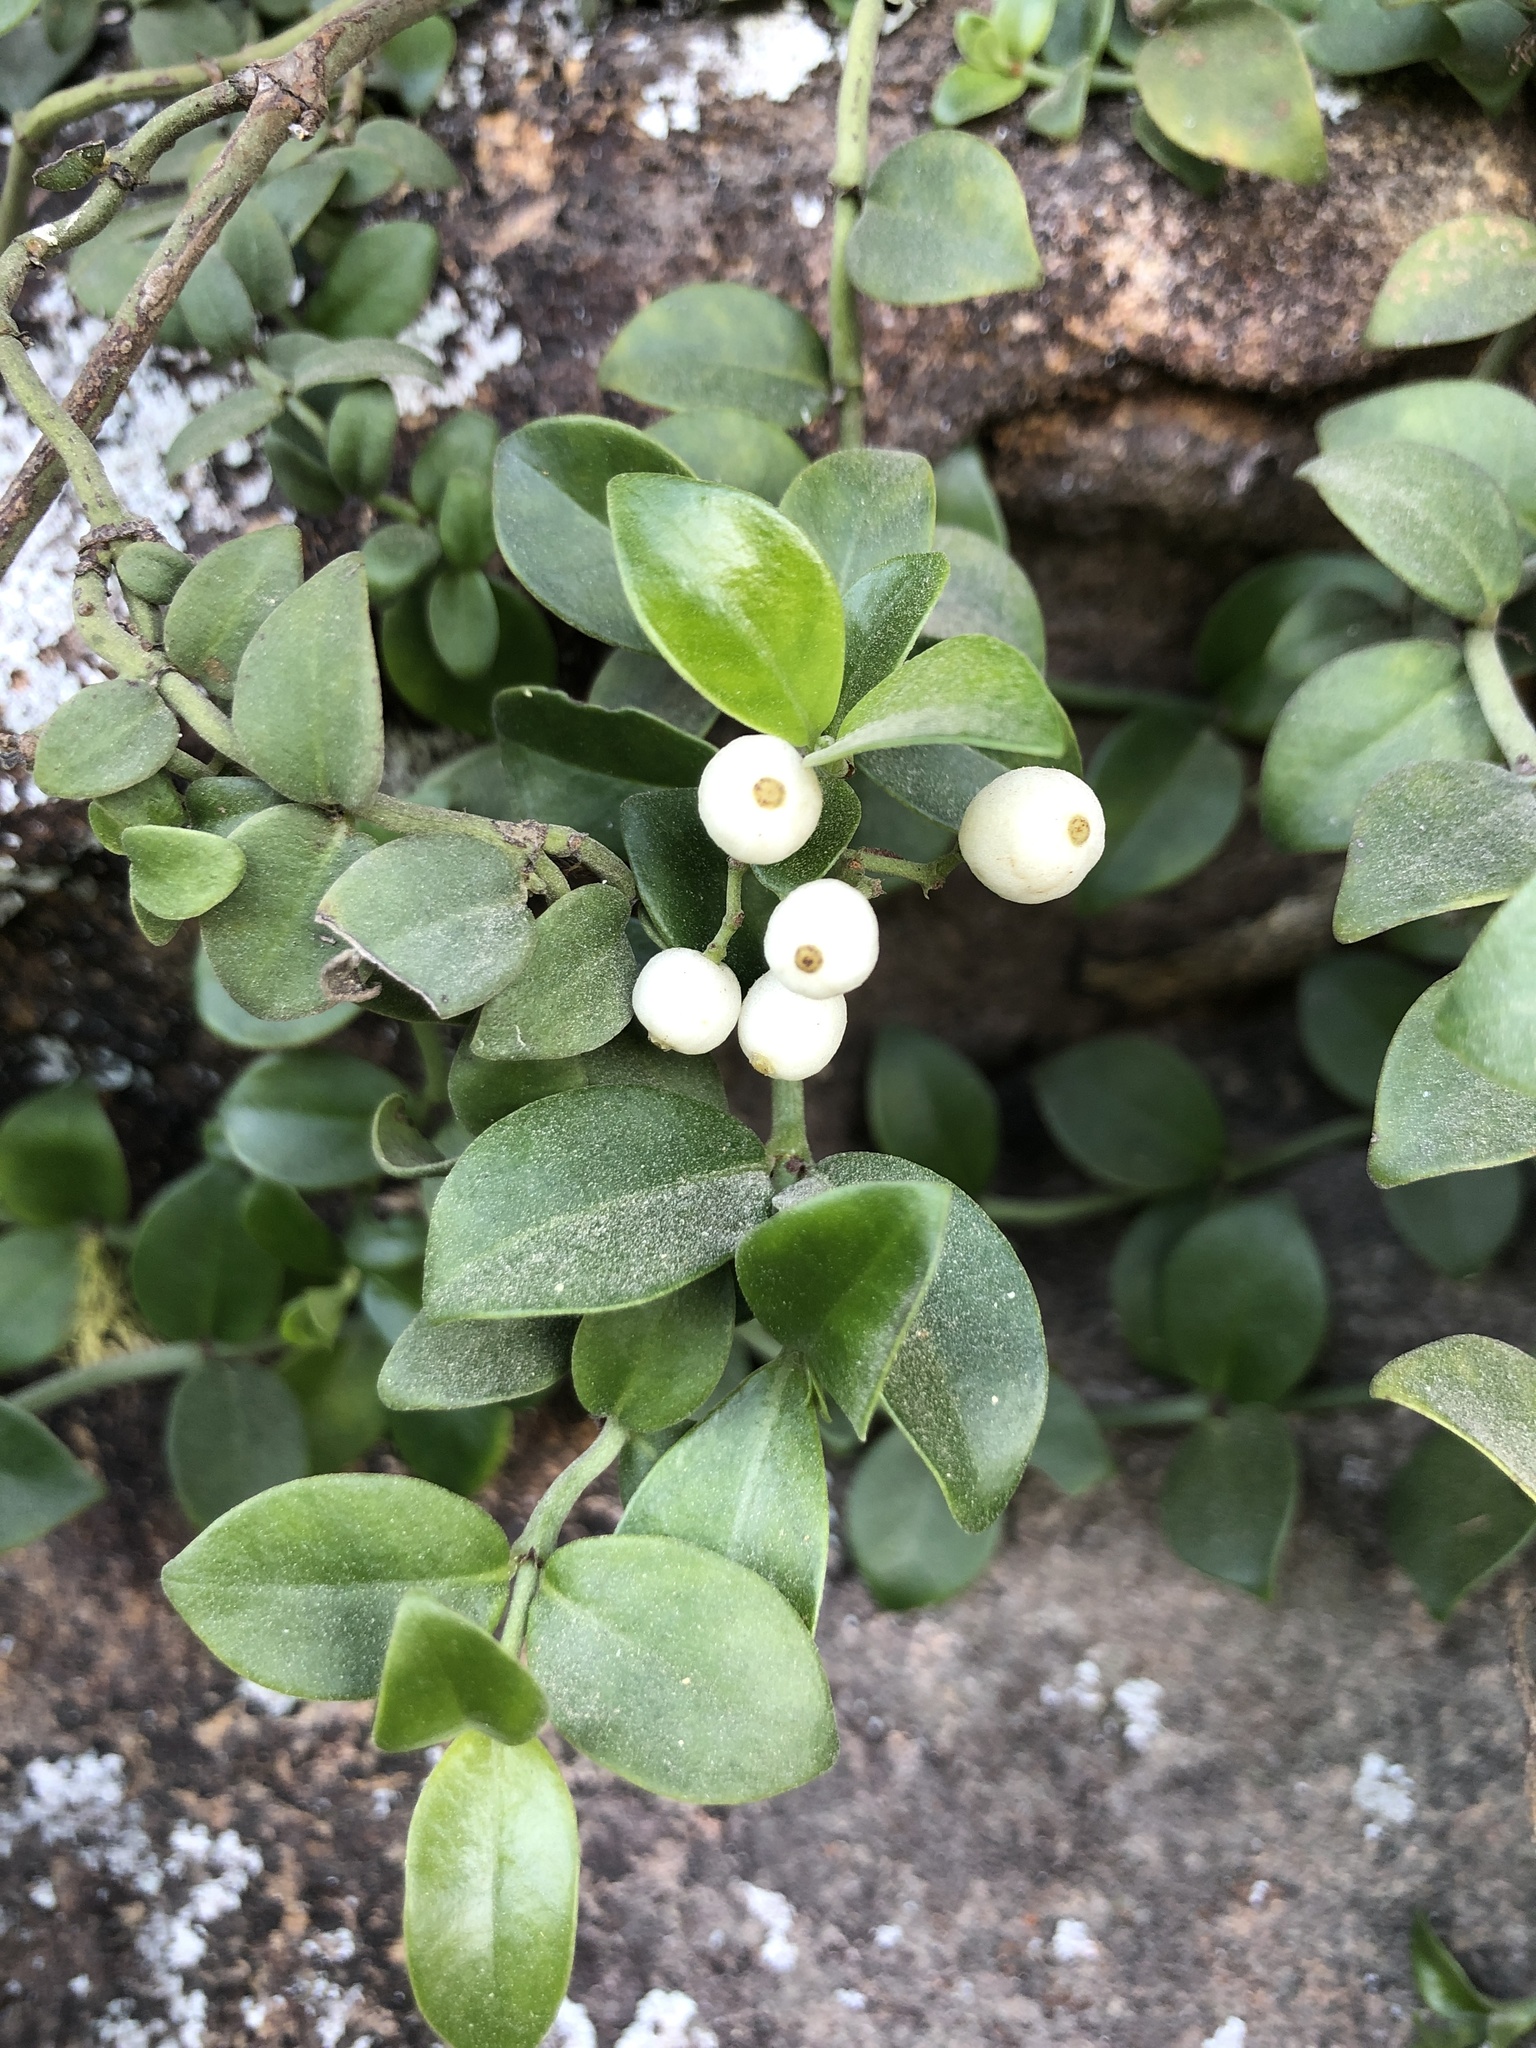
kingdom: Plantae
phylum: Tracheophyta
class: Magnoliopsida
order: Gentianales
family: Rubiaceae
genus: Psychotria
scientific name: Psychotria serpens
